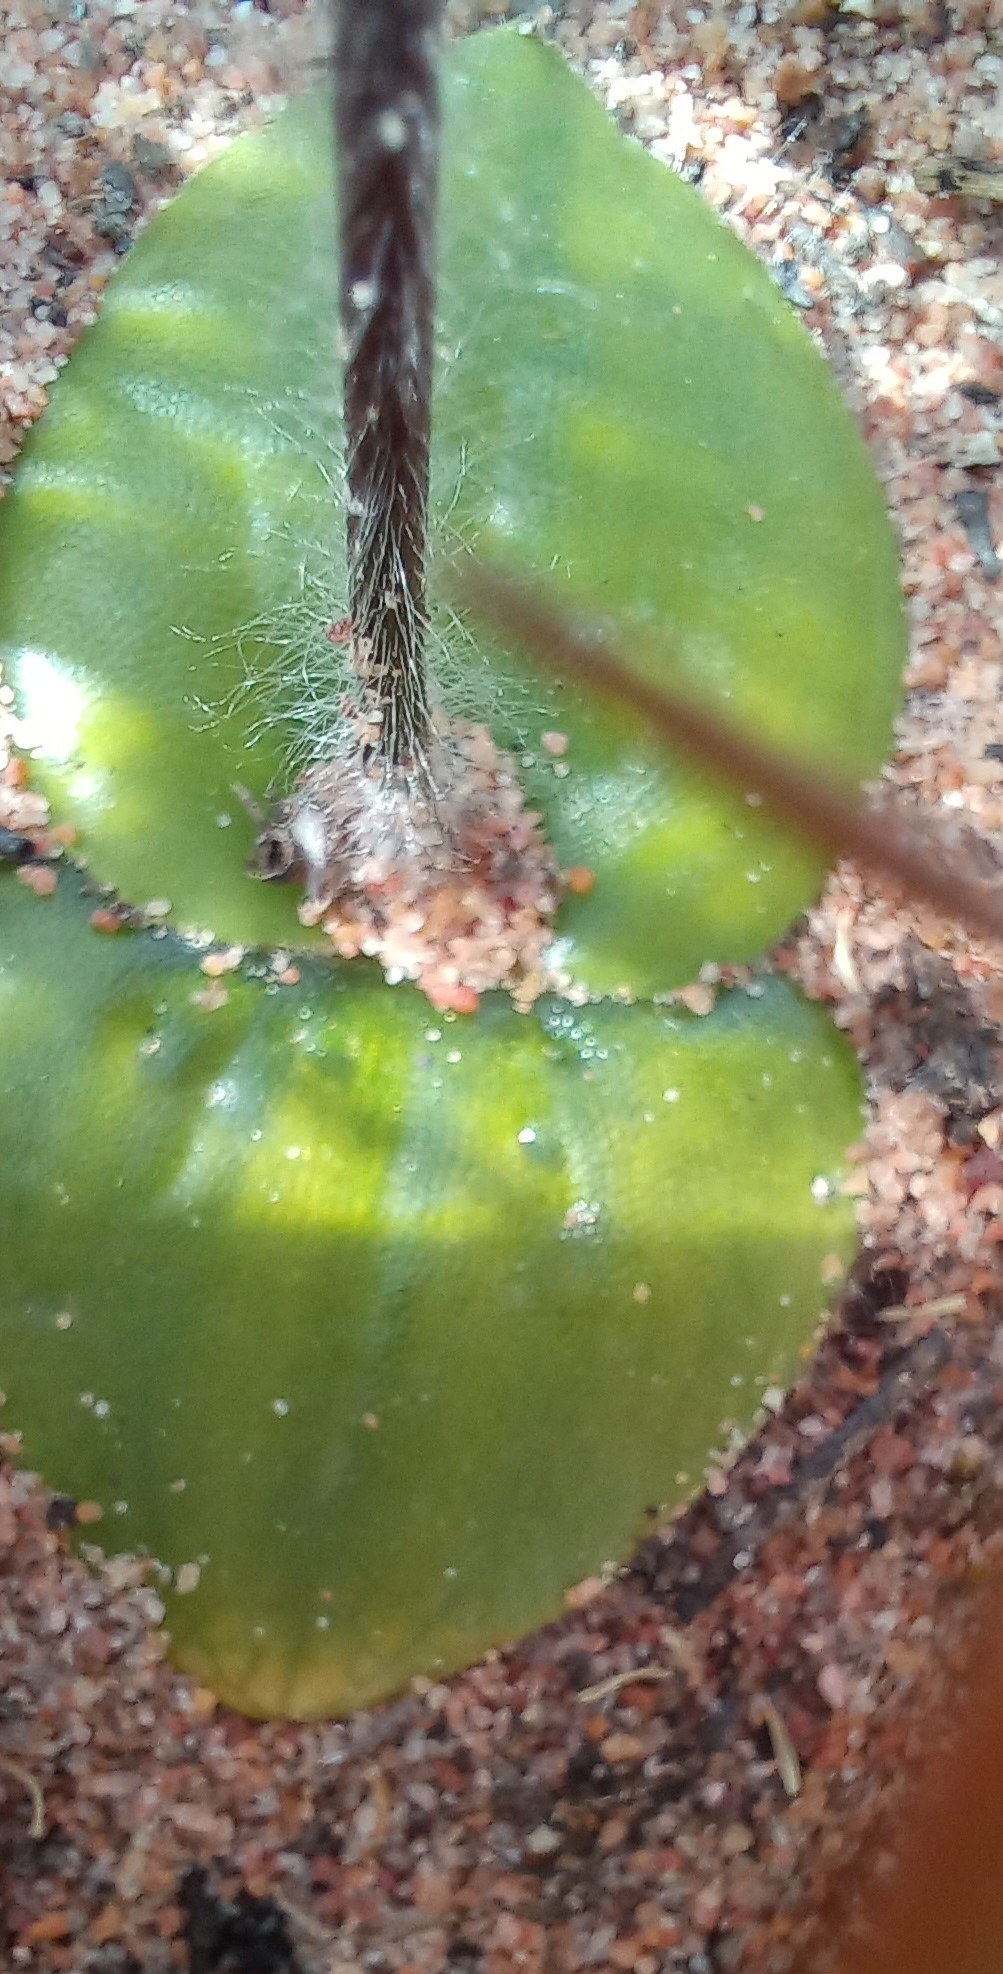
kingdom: Plantae
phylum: Tracheophyta
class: Liliopsida
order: Asparagales
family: Orchidaceae
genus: Holothrix
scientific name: Holothrix villosa
